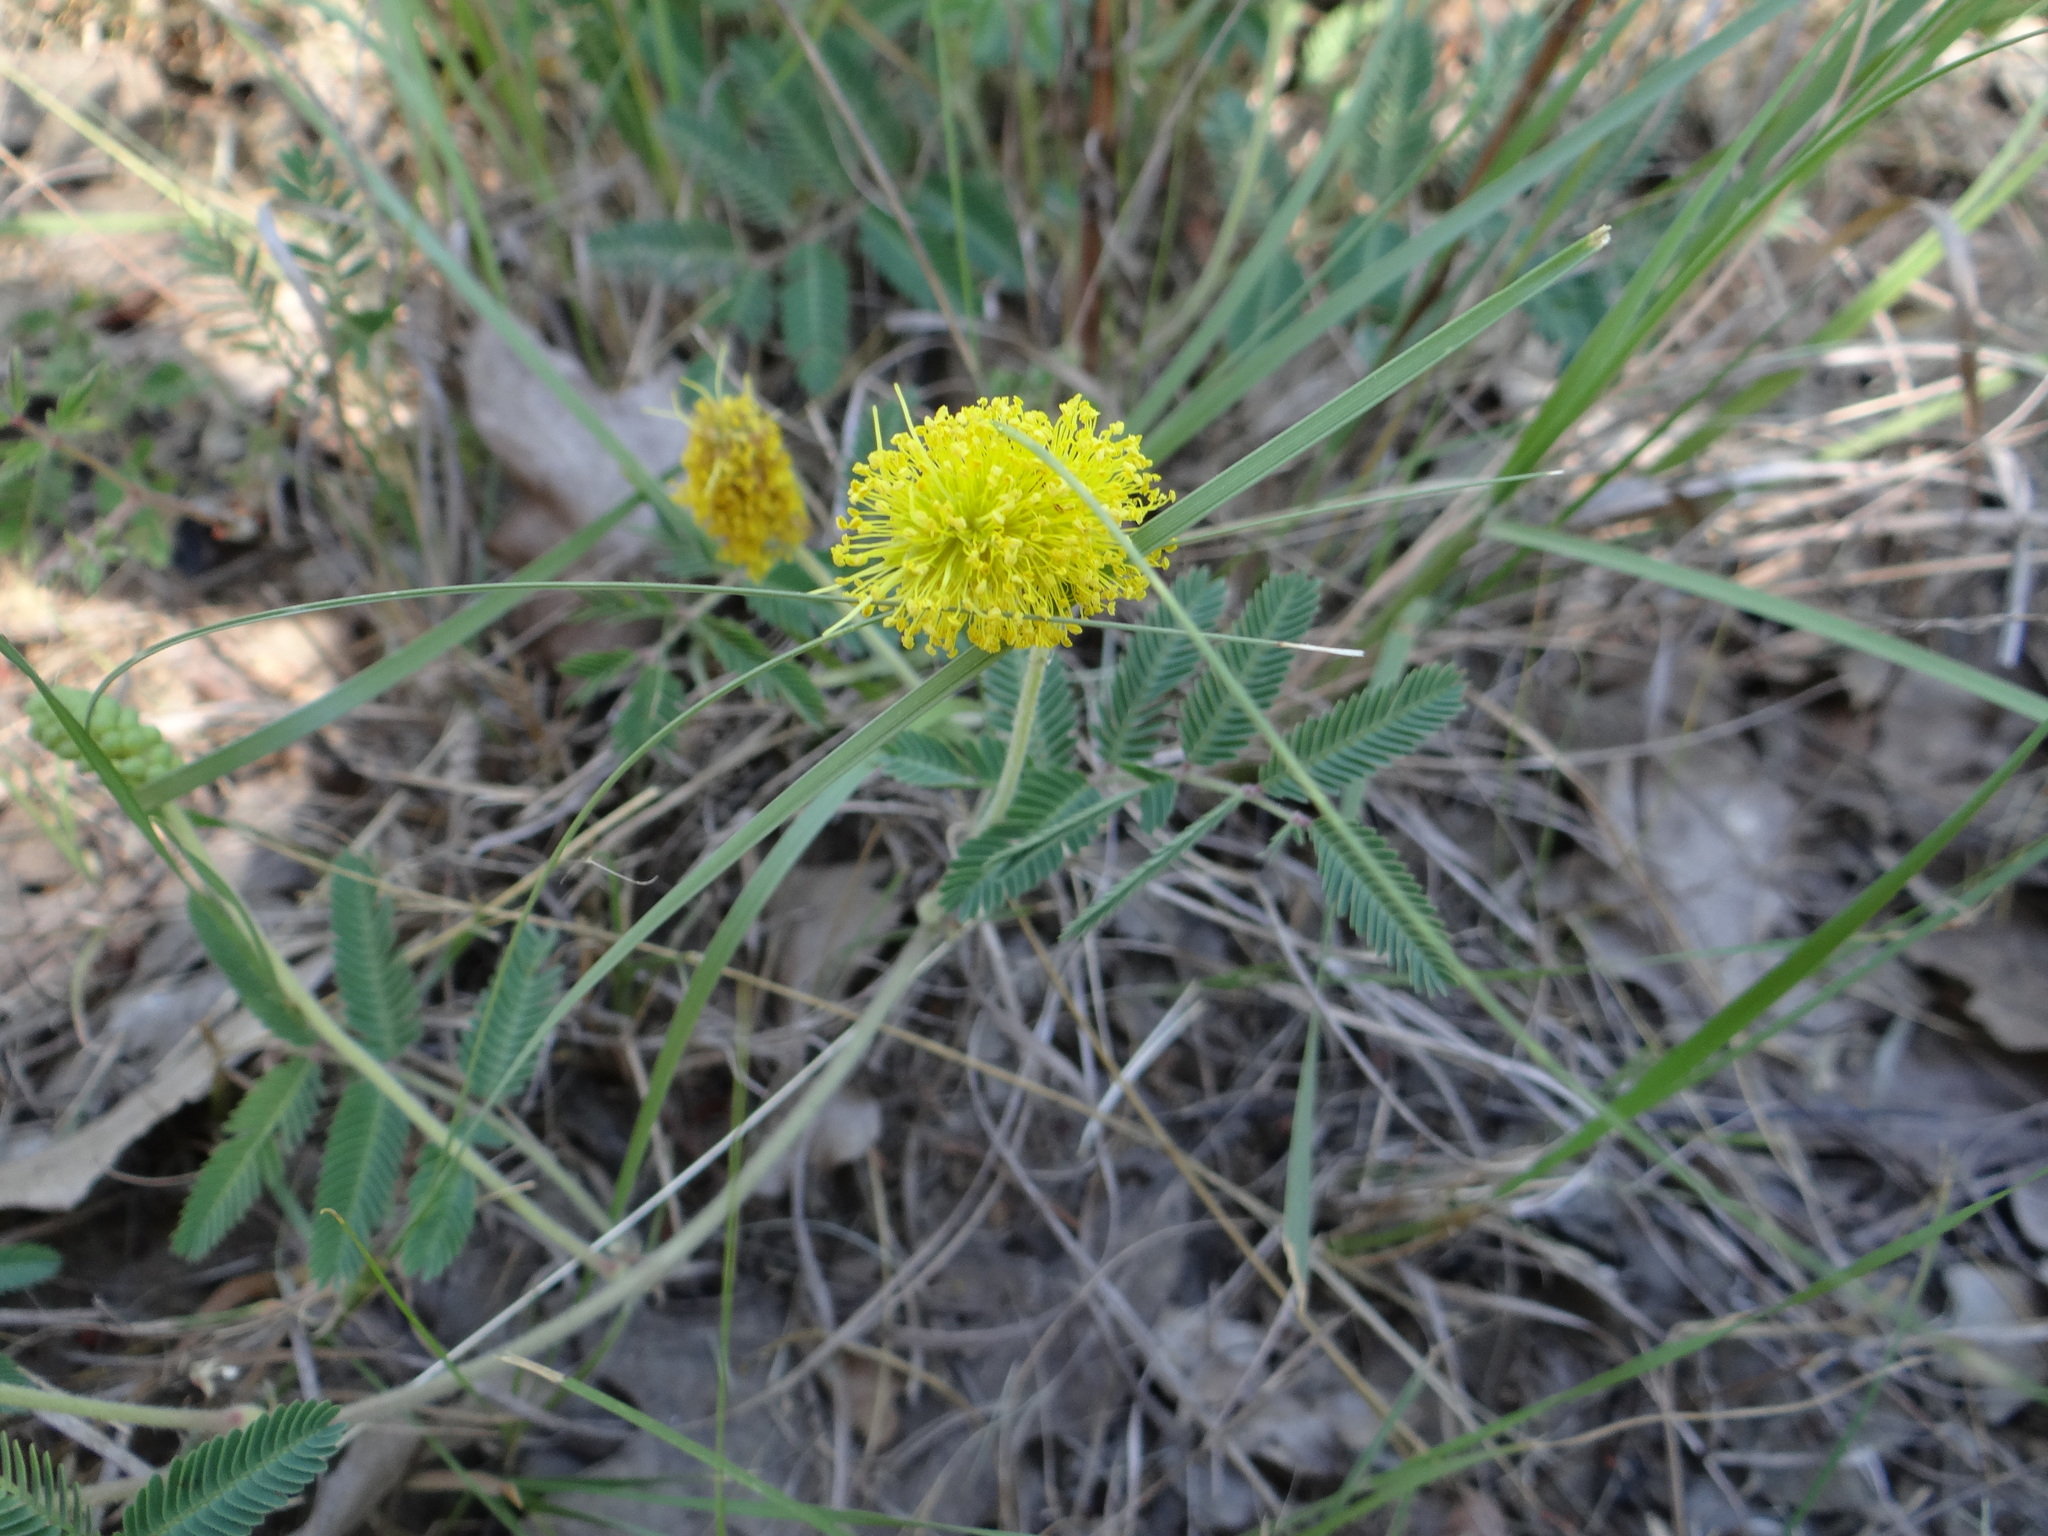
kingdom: Plantae
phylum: Tracheophyta
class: Magnoliopsida
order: Fabales
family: Fabaceae
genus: Neptunia
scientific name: Neptunia lutea
